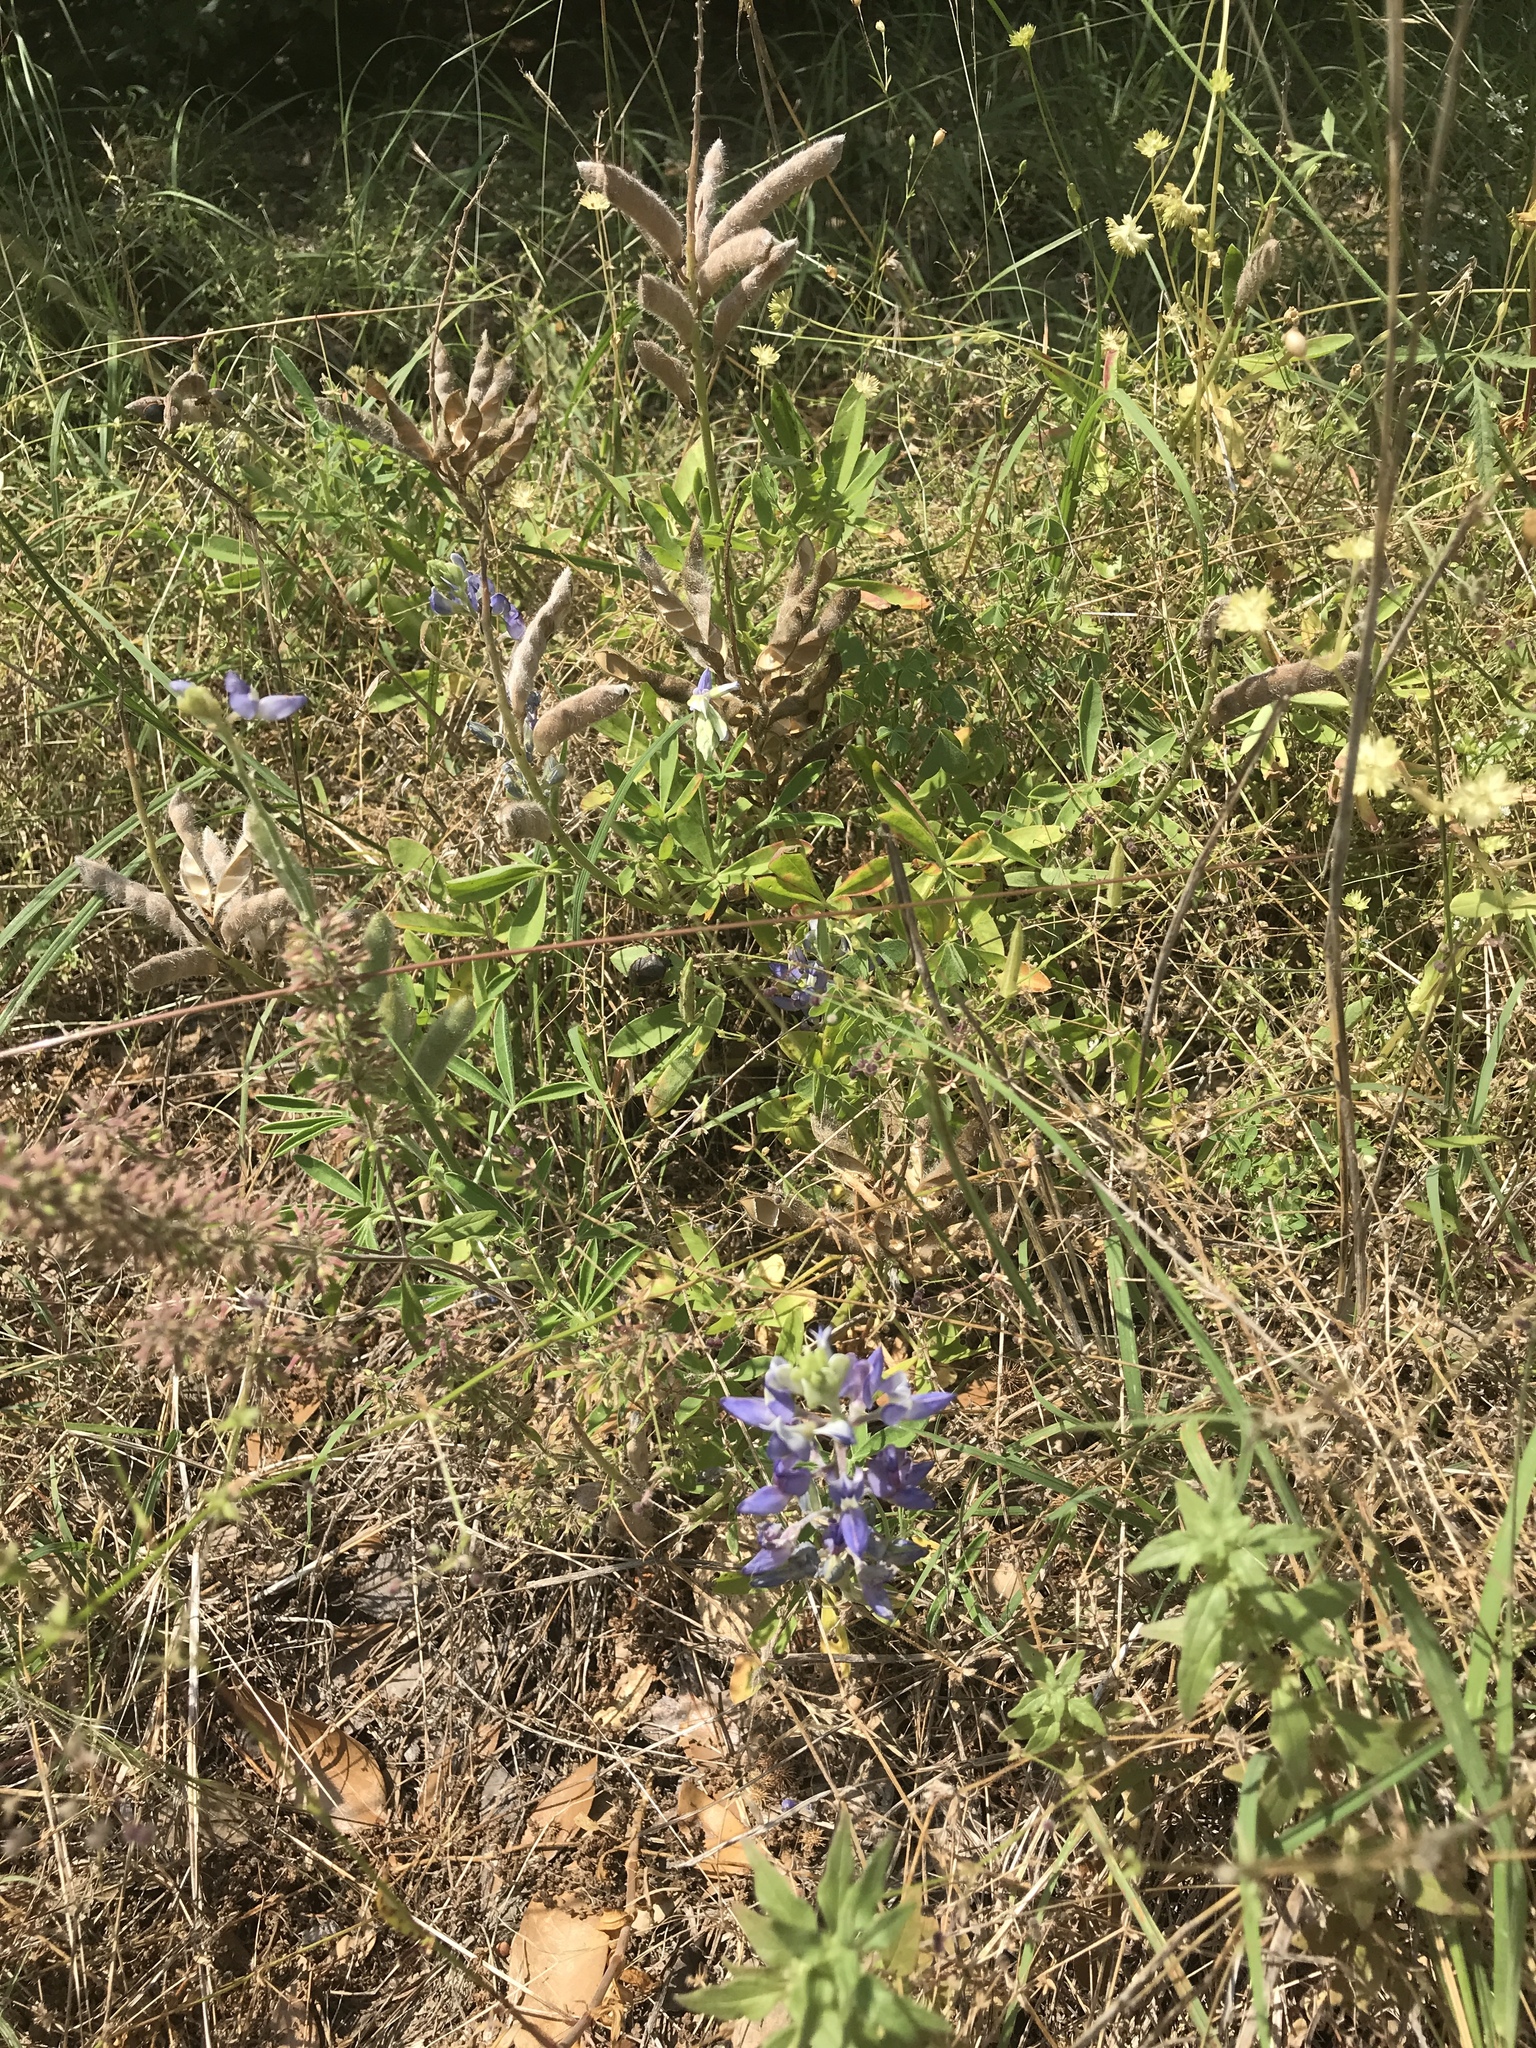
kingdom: Plantae
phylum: Tracheophyta
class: Magnoliopsida
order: Fabales
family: Fabaceae
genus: Lupinus
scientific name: Lupinus texensis
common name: Texas bluebonnet
